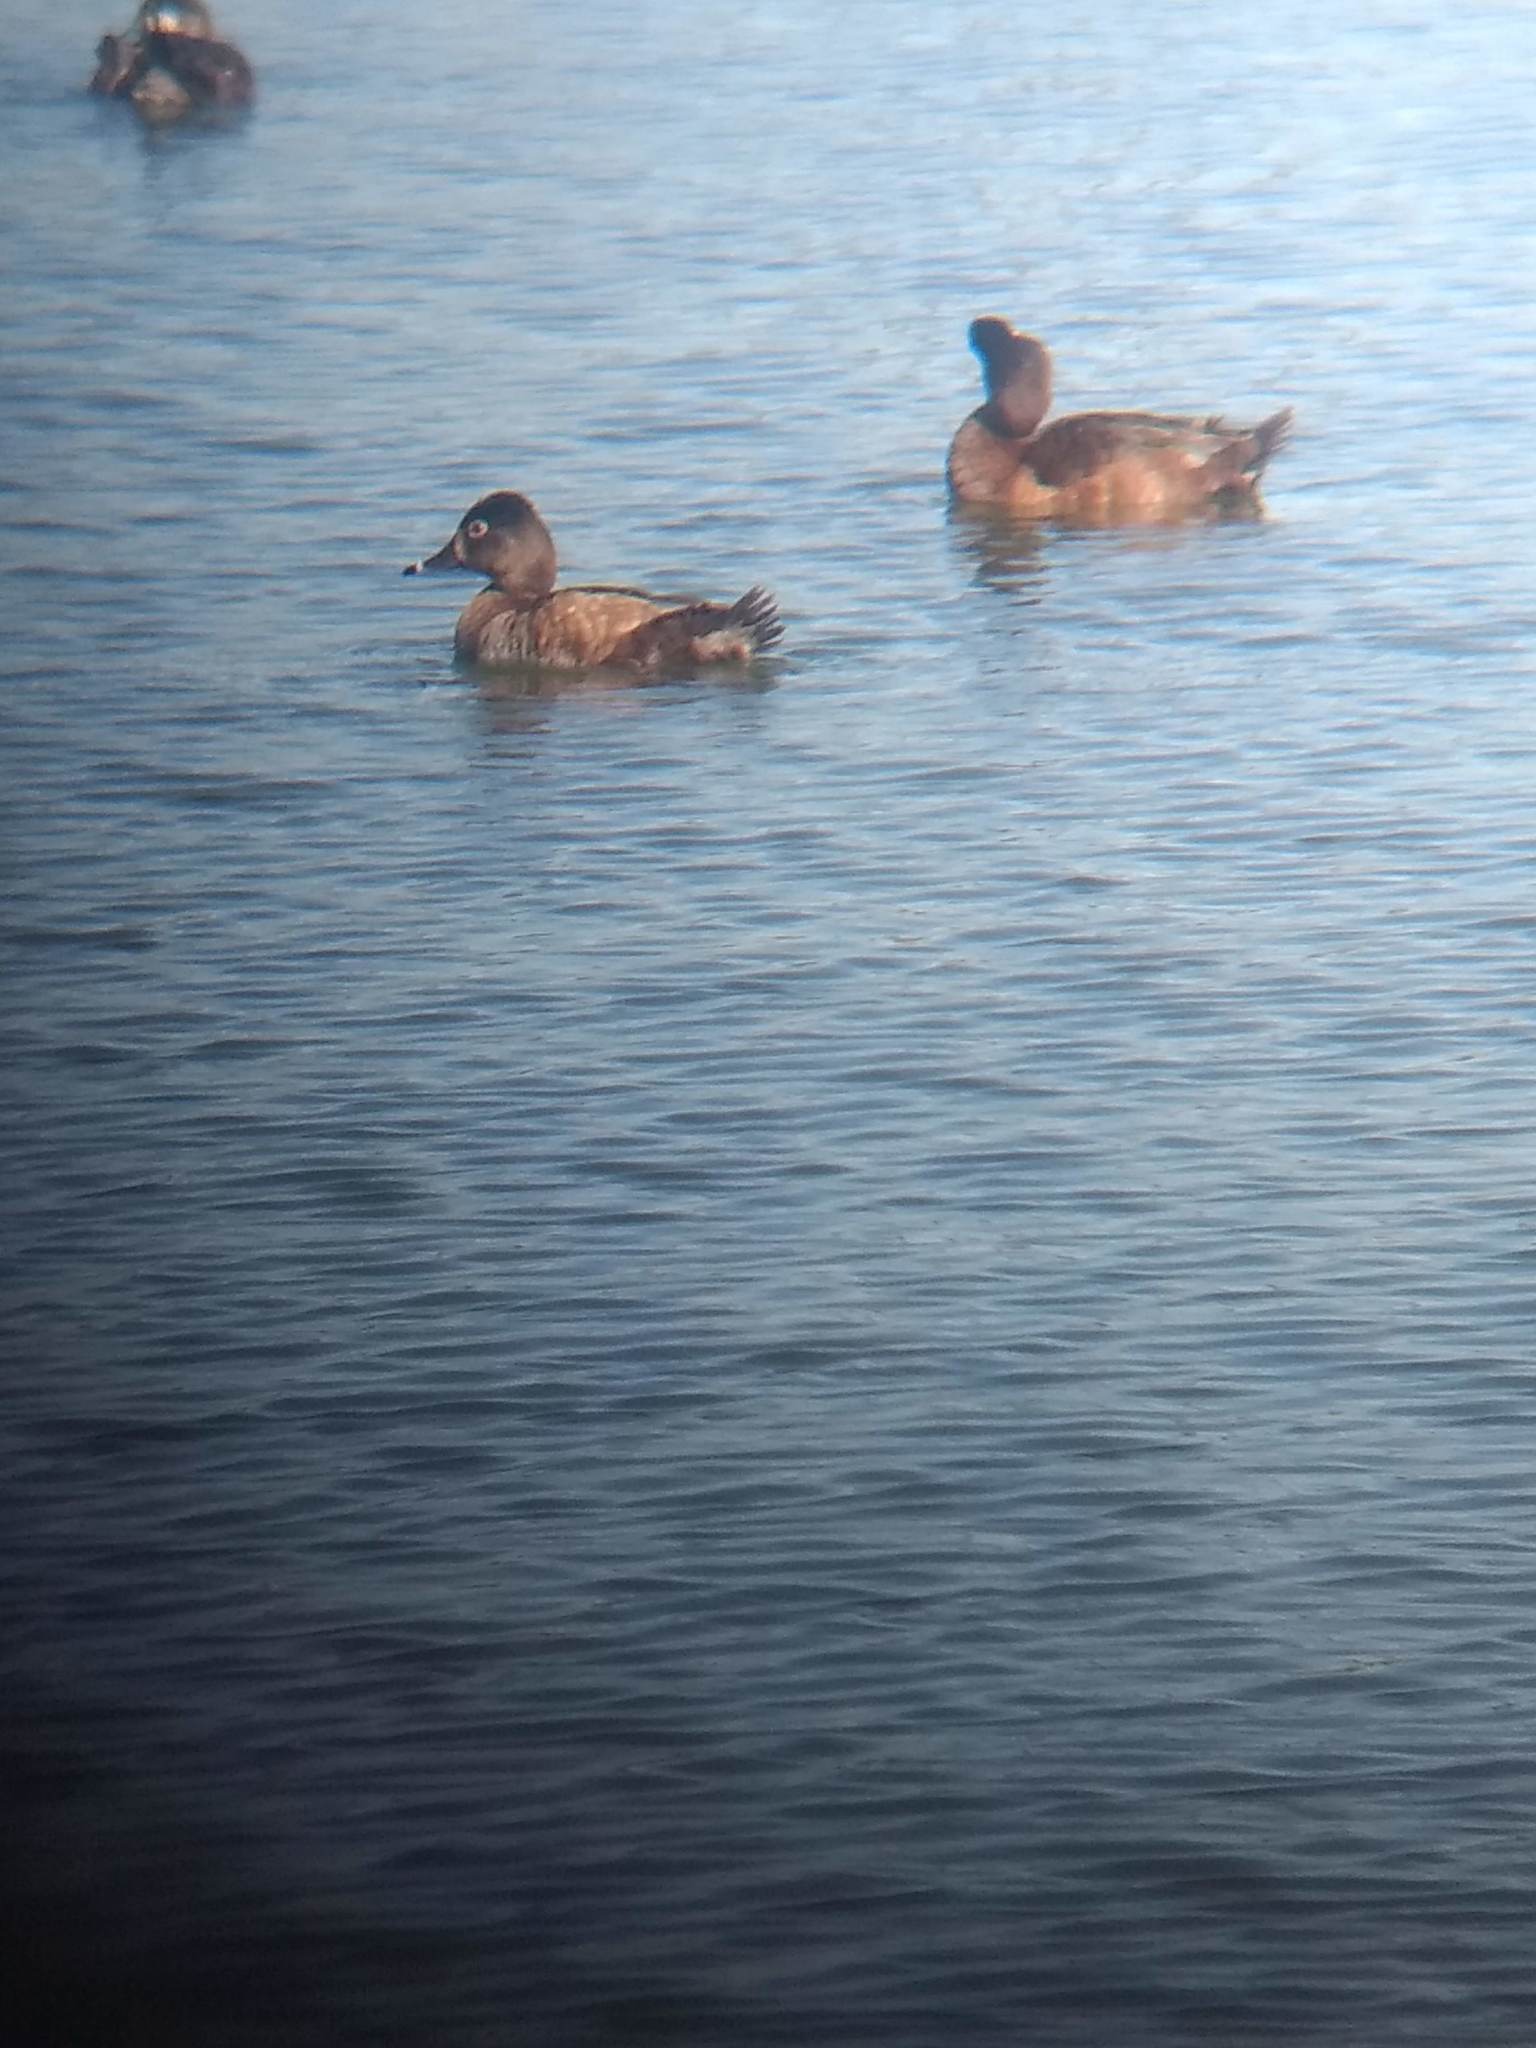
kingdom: Animalia
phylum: Chordata
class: Aves
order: Anseriformes
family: Anatidae
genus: Aythya
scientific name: Aythya collaris
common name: Ring-necked duck
